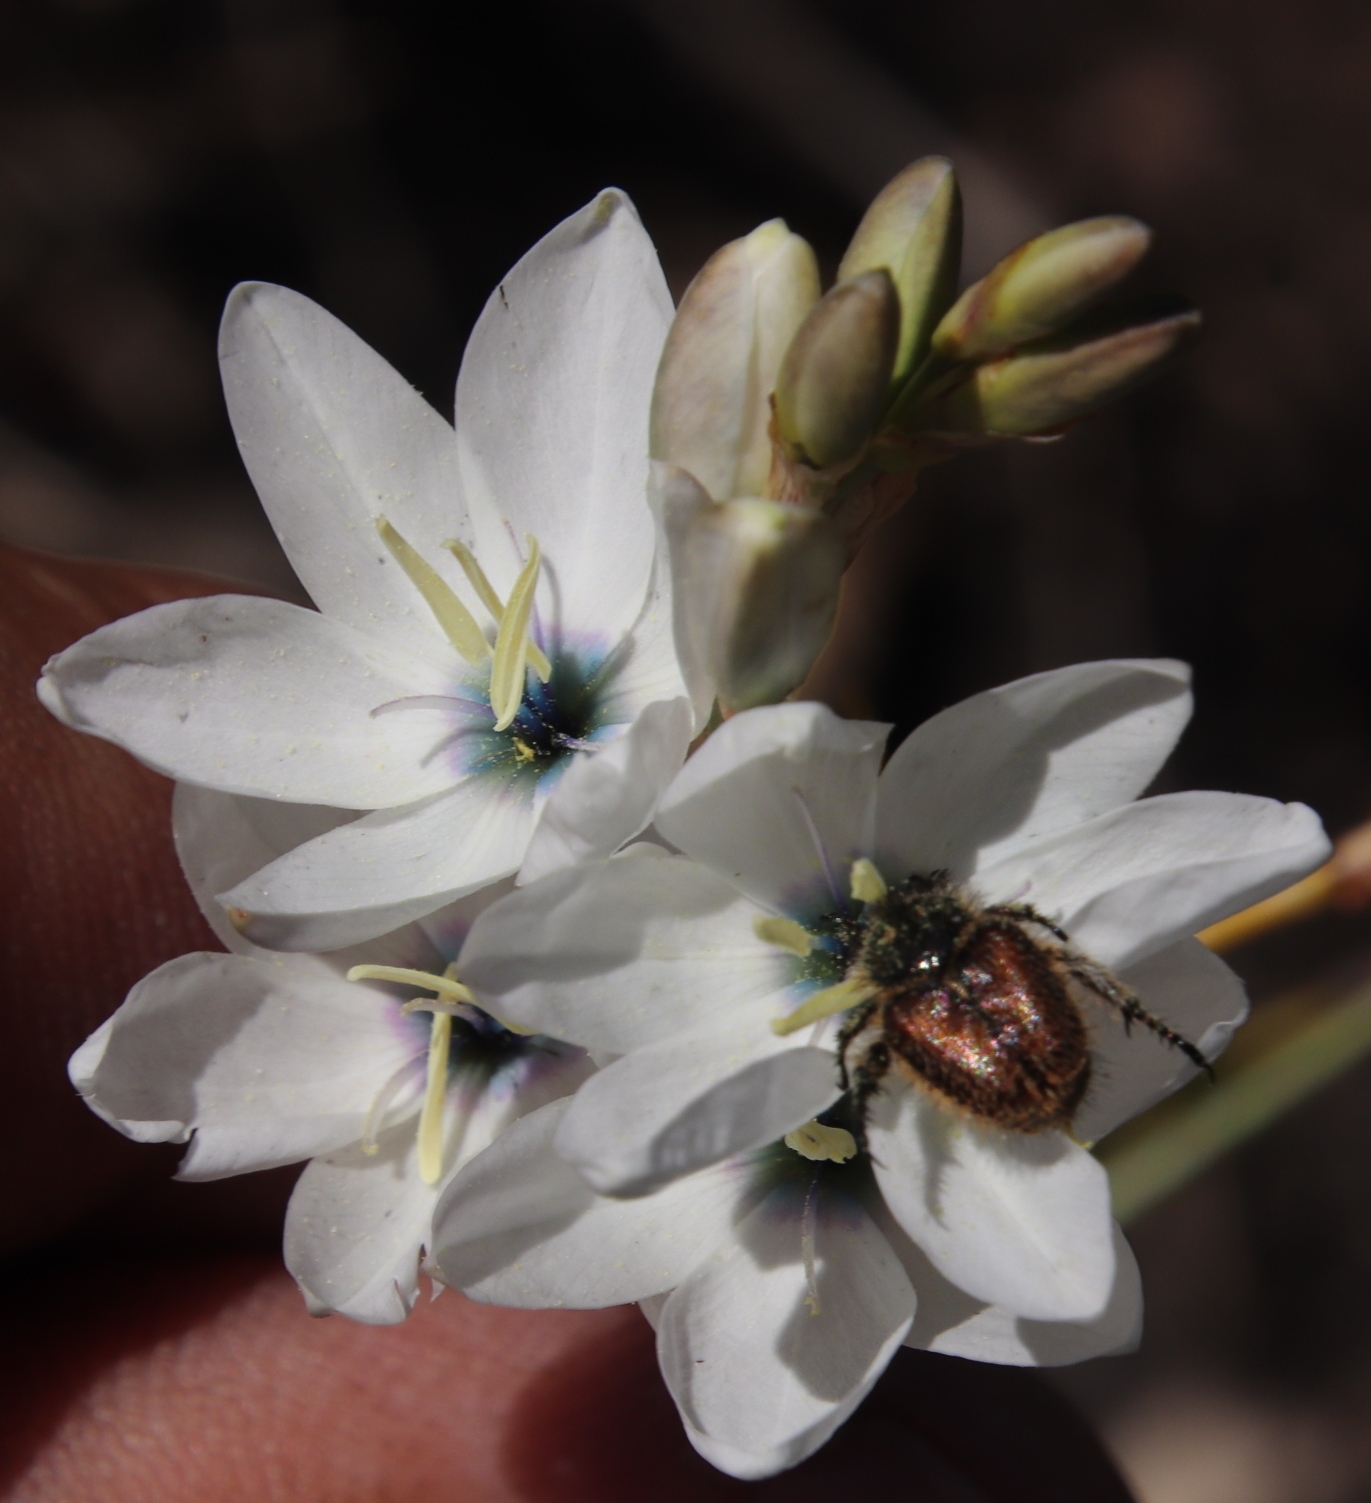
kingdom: Plantae
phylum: Tracheophyta
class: Liliopsida
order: Asparagales
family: Iridaceae
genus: Ixia
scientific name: Ixia polystachya
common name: White-and-yellow-flower cornlily
